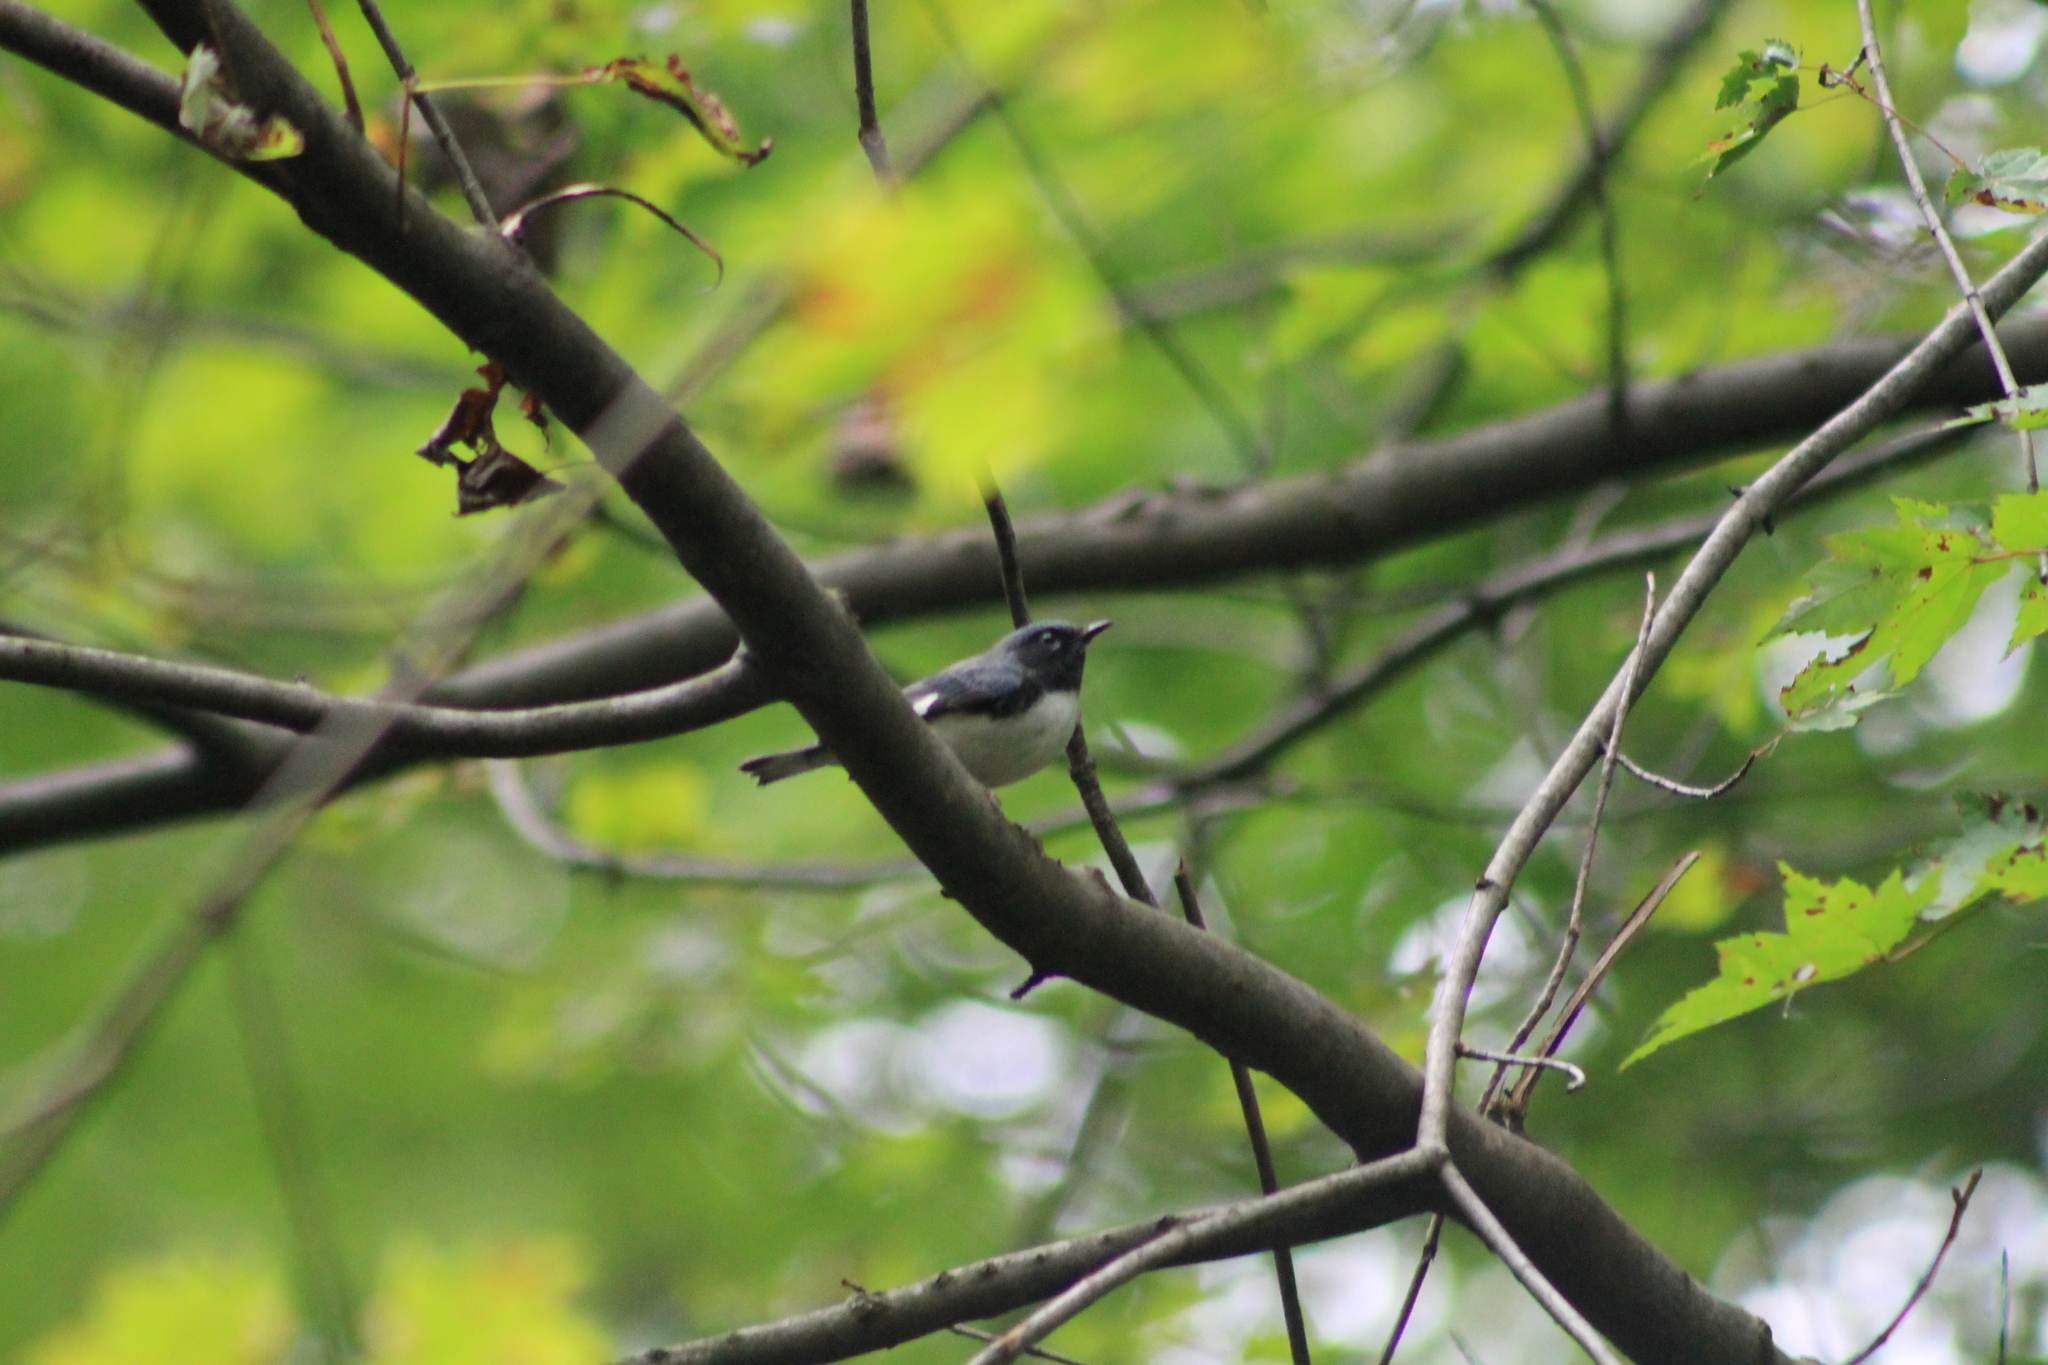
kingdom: Animalia
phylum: Chordata
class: Aves
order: Passeriformes
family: Parulidae
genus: Setophaga
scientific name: Setophaga caerulescens
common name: Black-throated blue warbler
